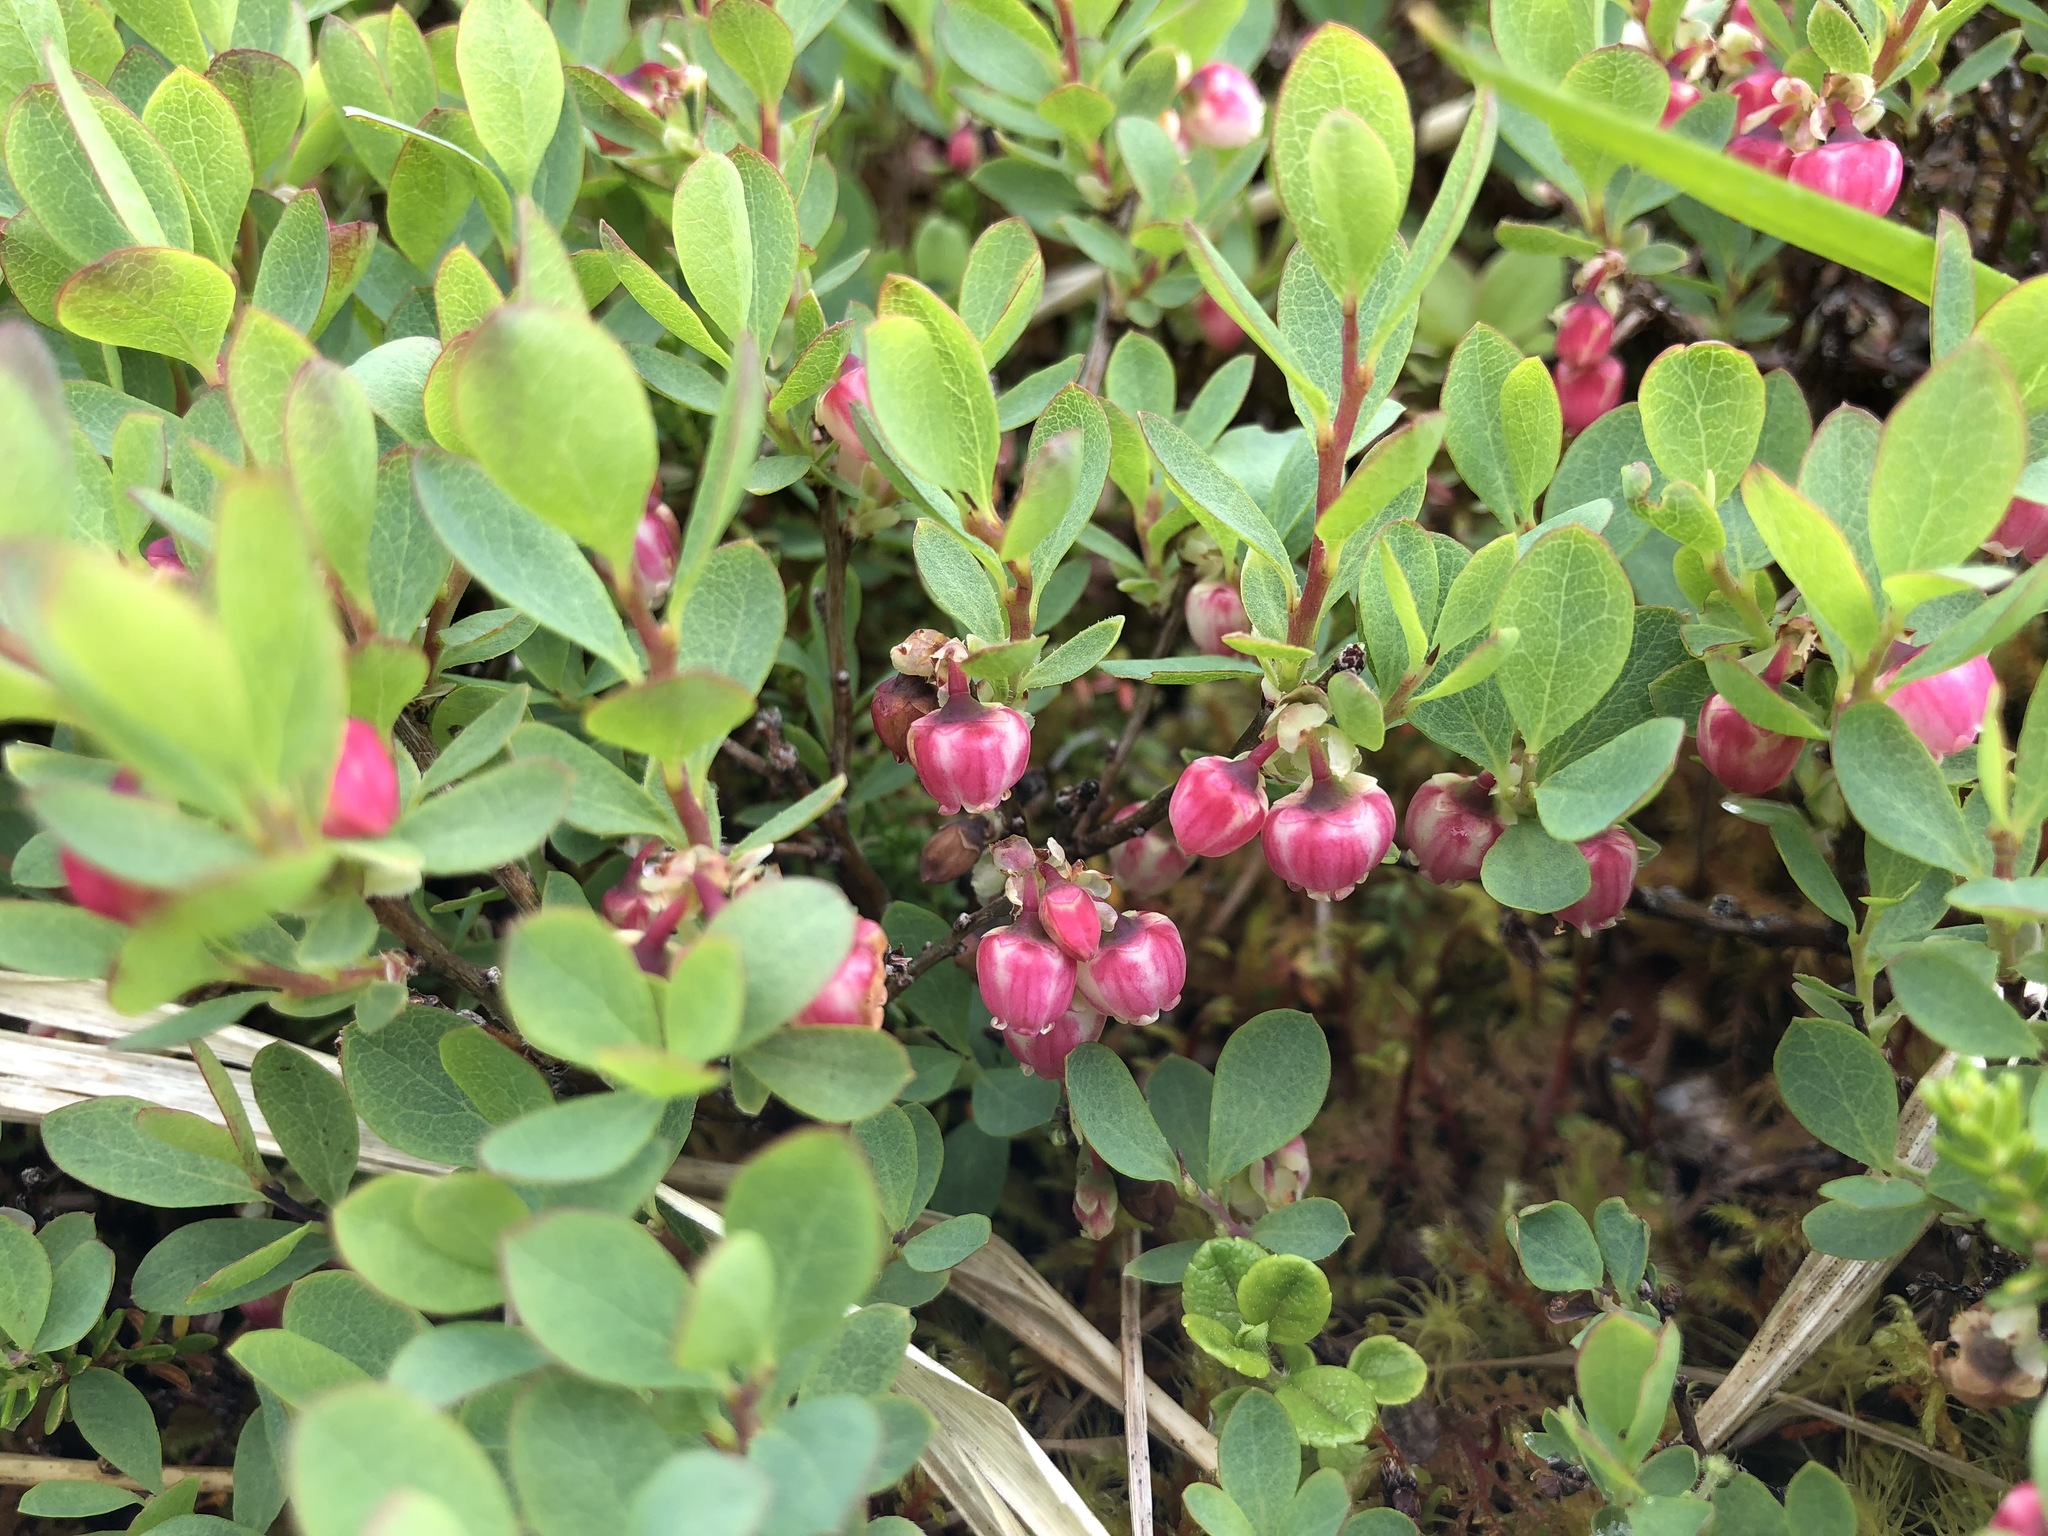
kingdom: Plantae
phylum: Tracheophyta
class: Magnoliopsida
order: Ericales
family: Ericaceae
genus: Vaccinium
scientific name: Vaccinium uliginosum
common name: Bog bilberry
